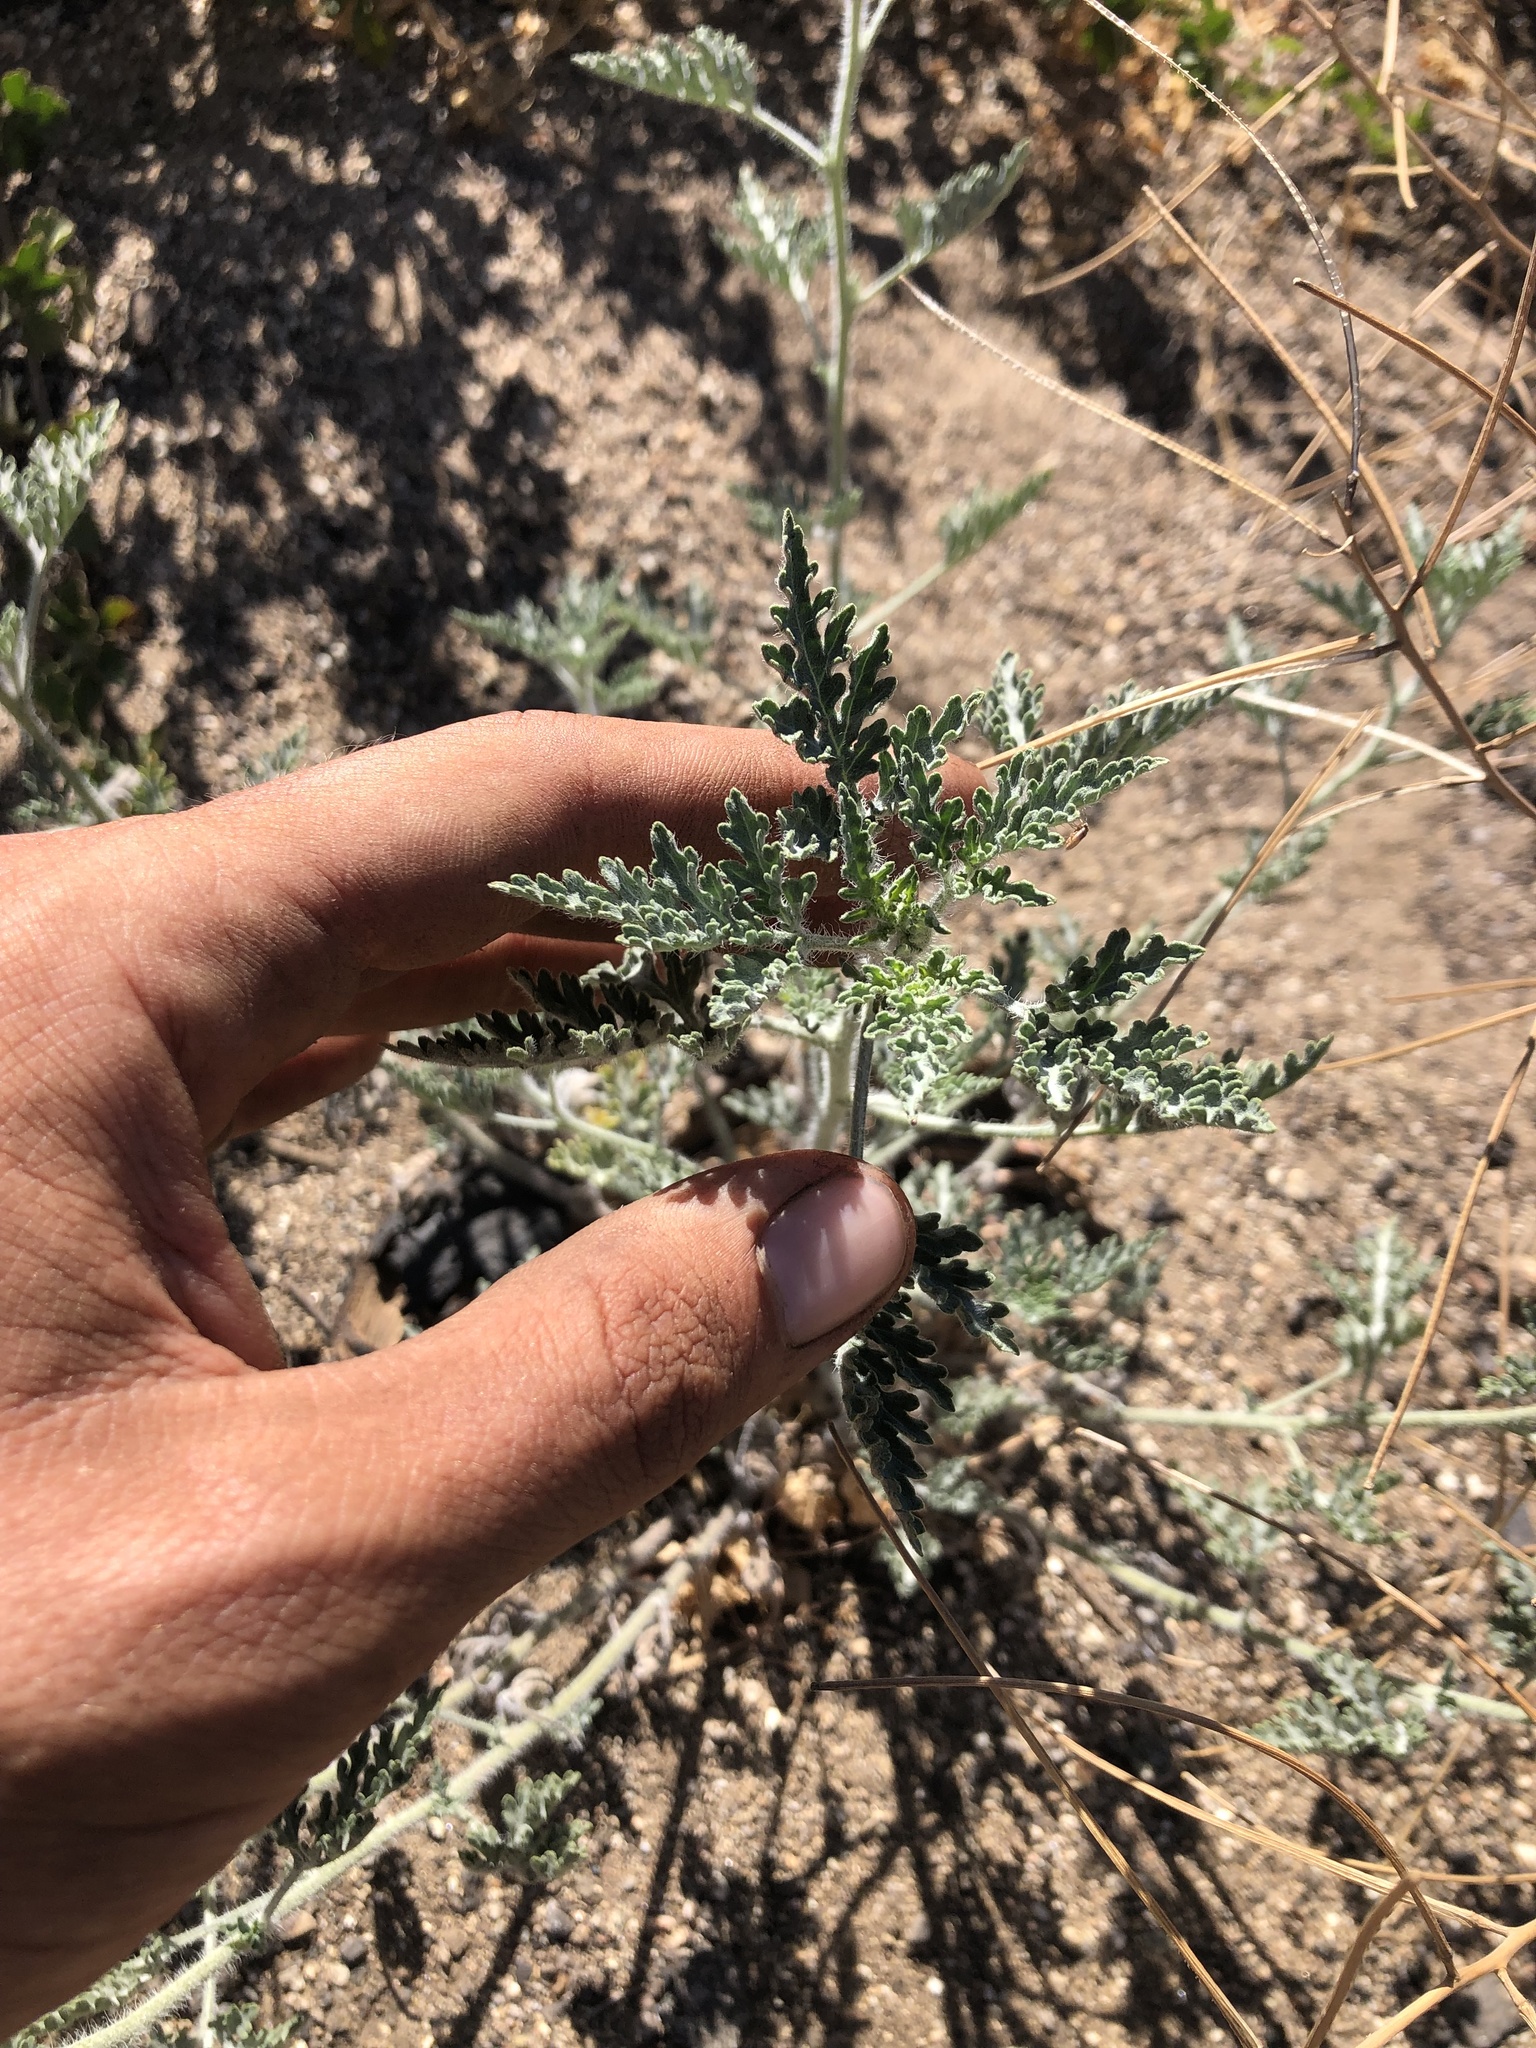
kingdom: Plantae
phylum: Tracheophyta
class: Magnoliopsida
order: Asterales
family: Asteraceae
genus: Ambrosia
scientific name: Ambrosia acanthicarpa
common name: Hooker's bur ragweed
